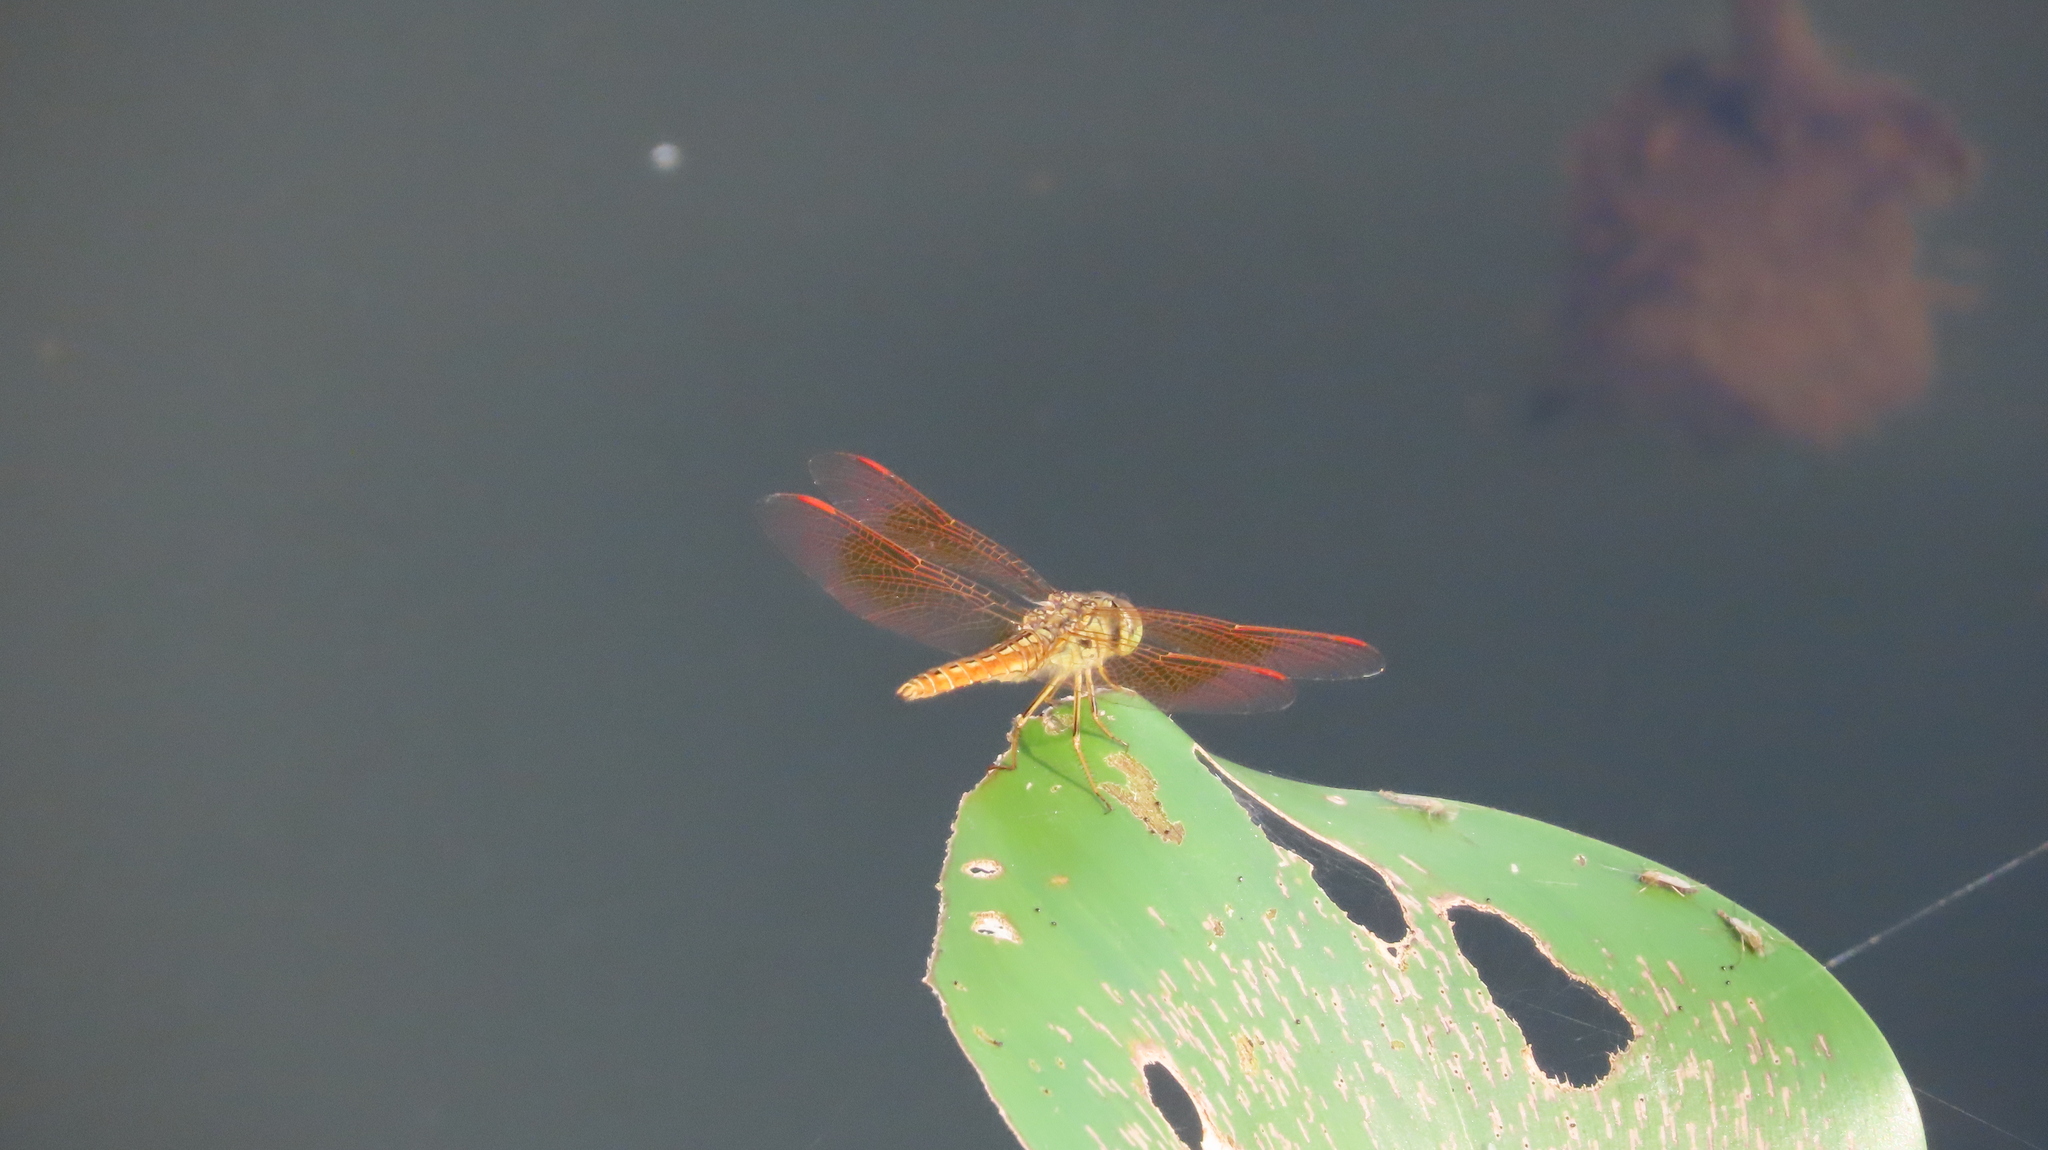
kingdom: Animalia
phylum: Arthropoda
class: Insecta
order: Odonata
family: Libellulidae
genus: Brachythemis
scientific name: Brachythemis contaminata
